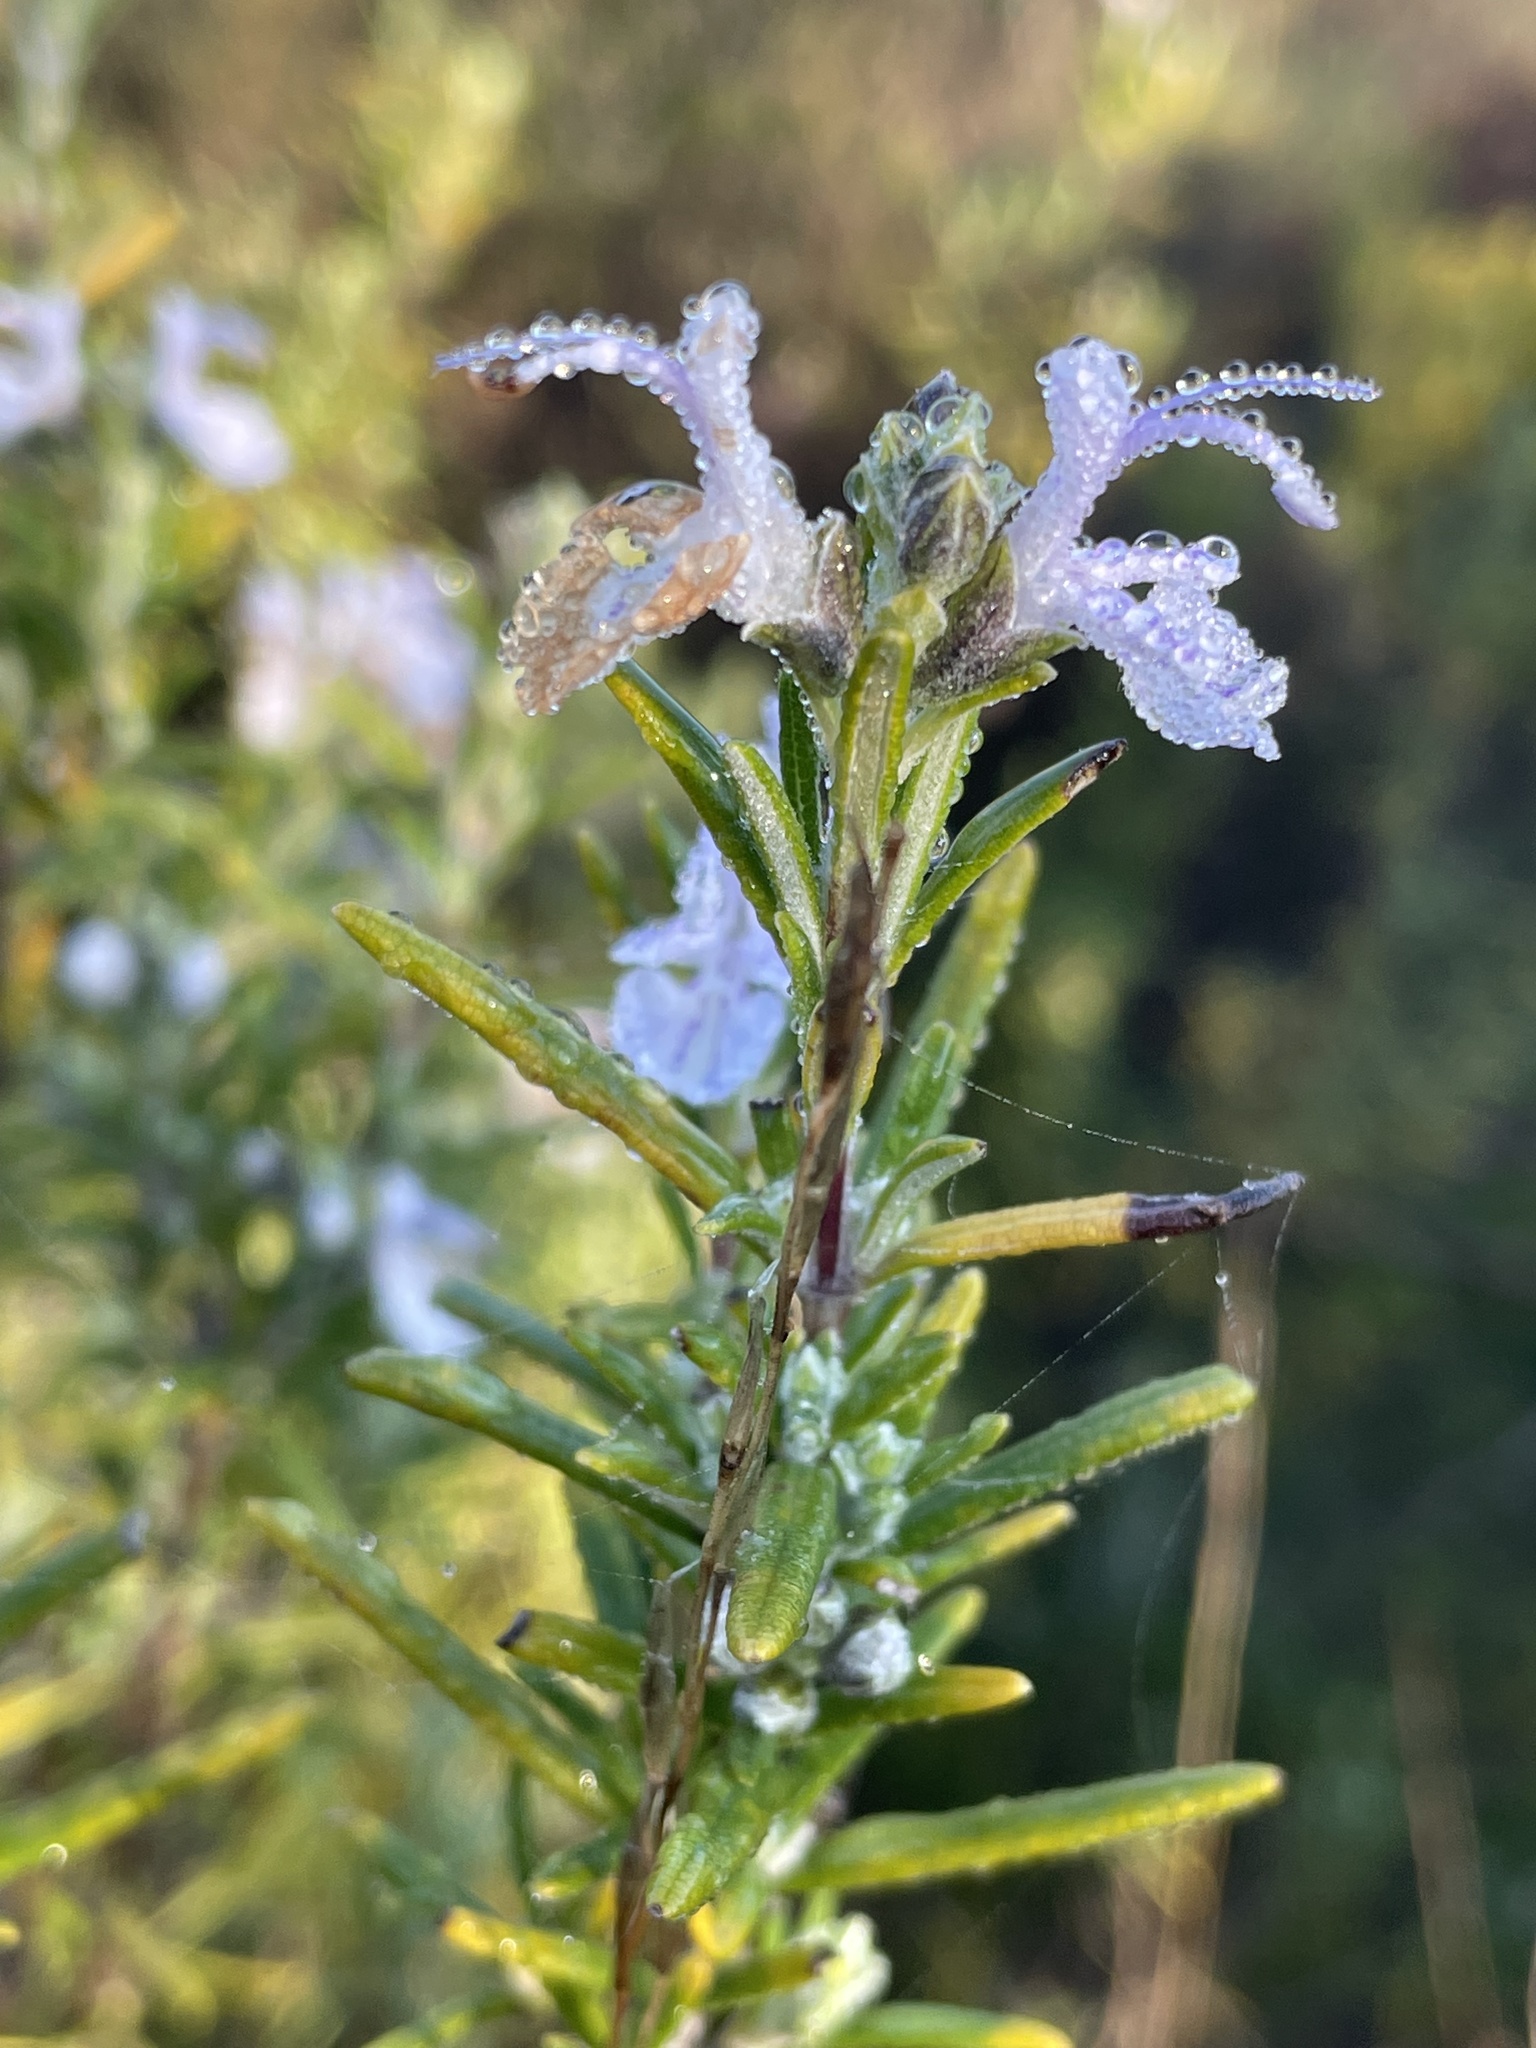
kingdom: Plantae
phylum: Tracheophyta
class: Magnoliopsida
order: Lamiales
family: Lamiaceae
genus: Salvia
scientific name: Salvia rosmarinus
